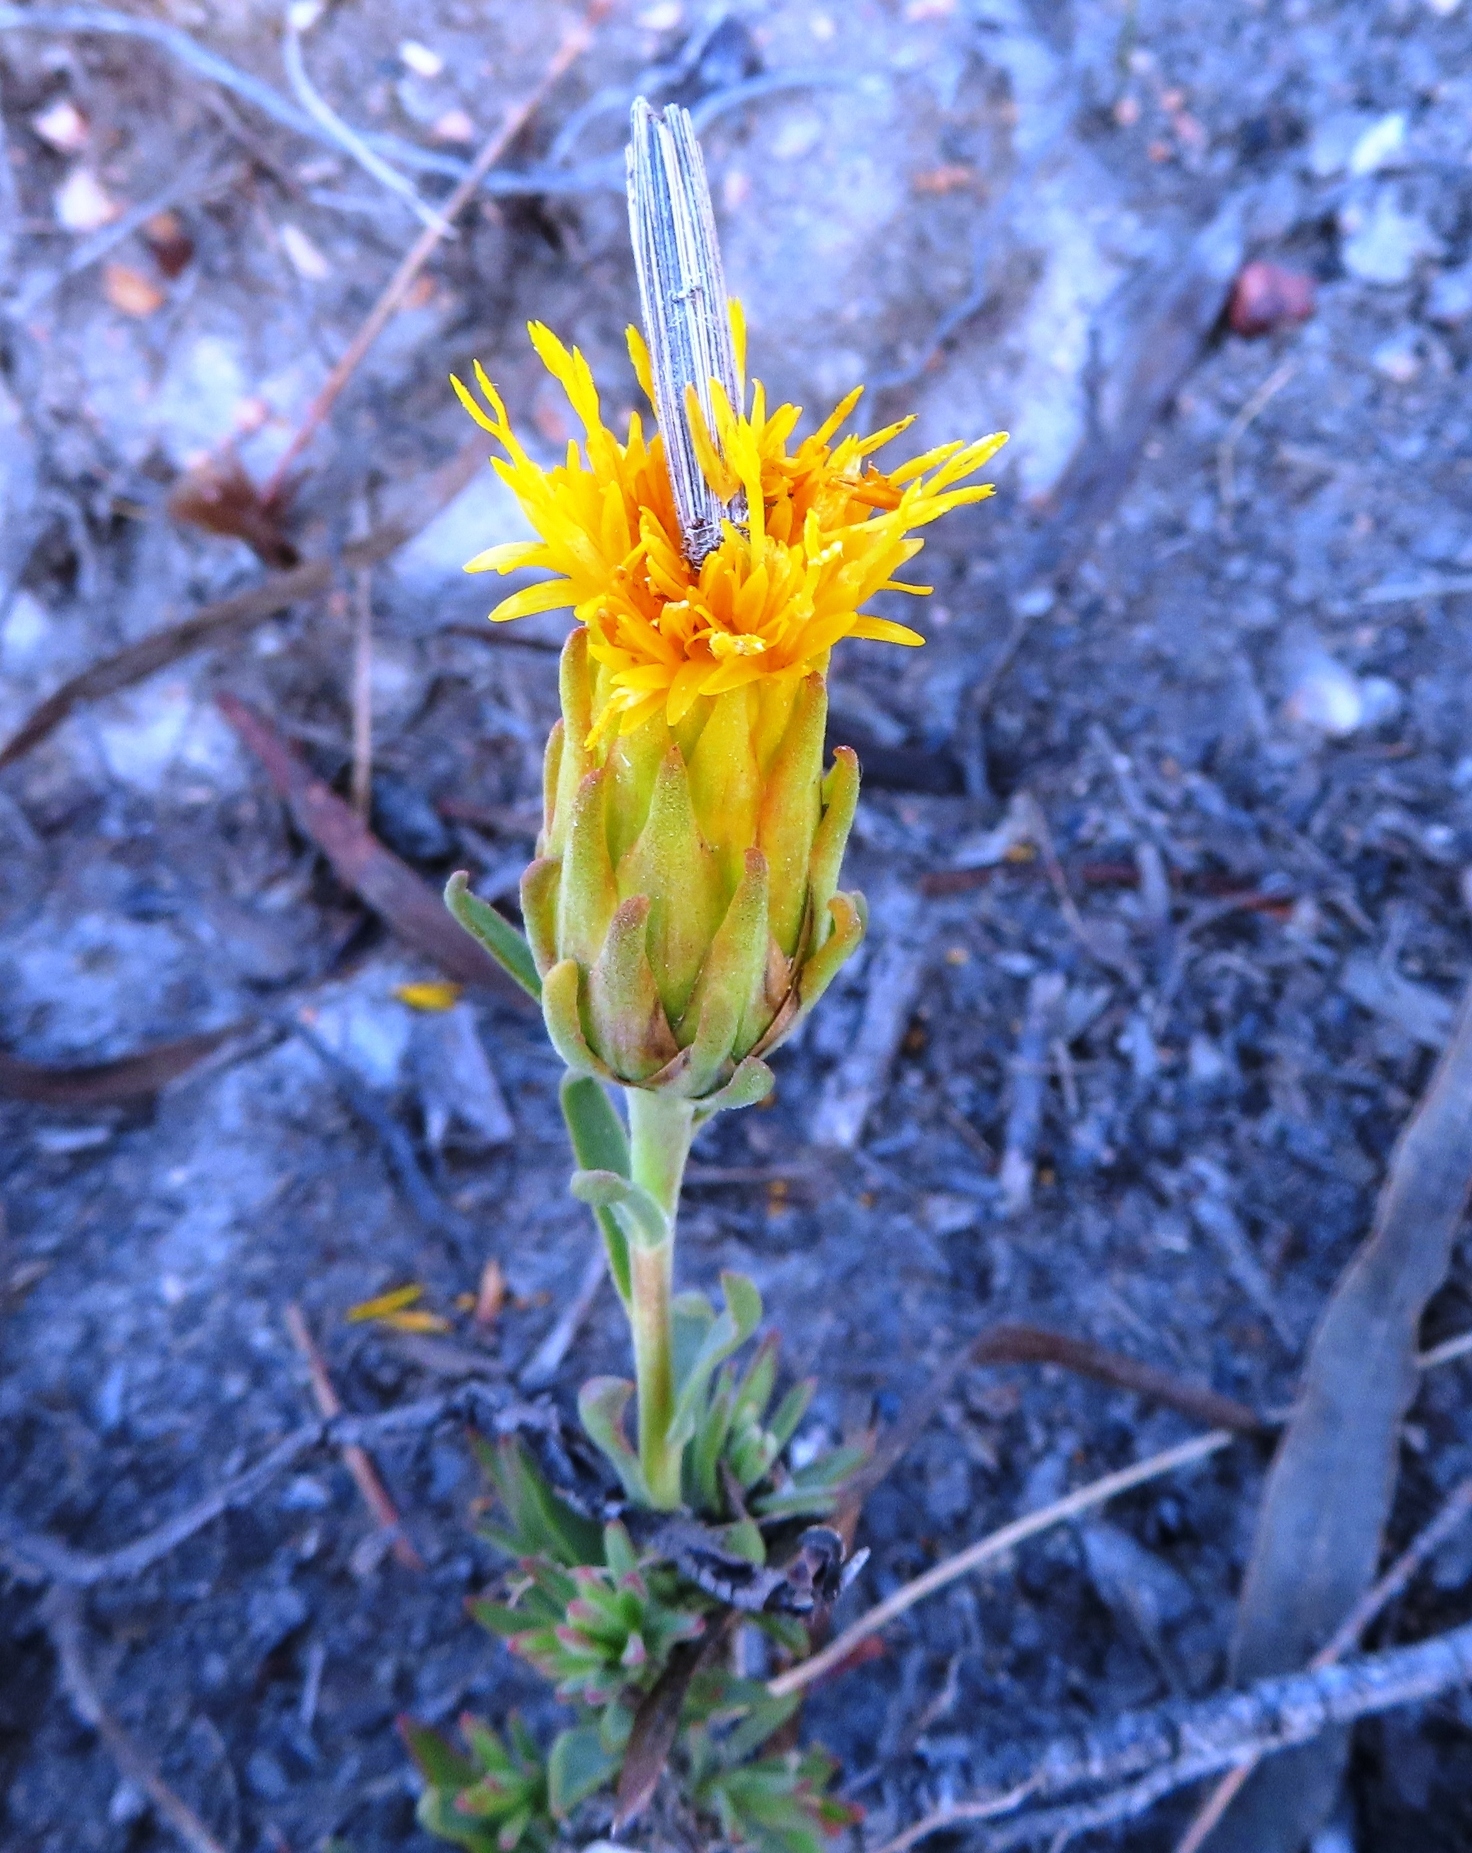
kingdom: Plantae
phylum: Tracheophyta
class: Magnoliopsida
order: Asterales
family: Asteraceae
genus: Pteronia
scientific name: Pteronia scabra
